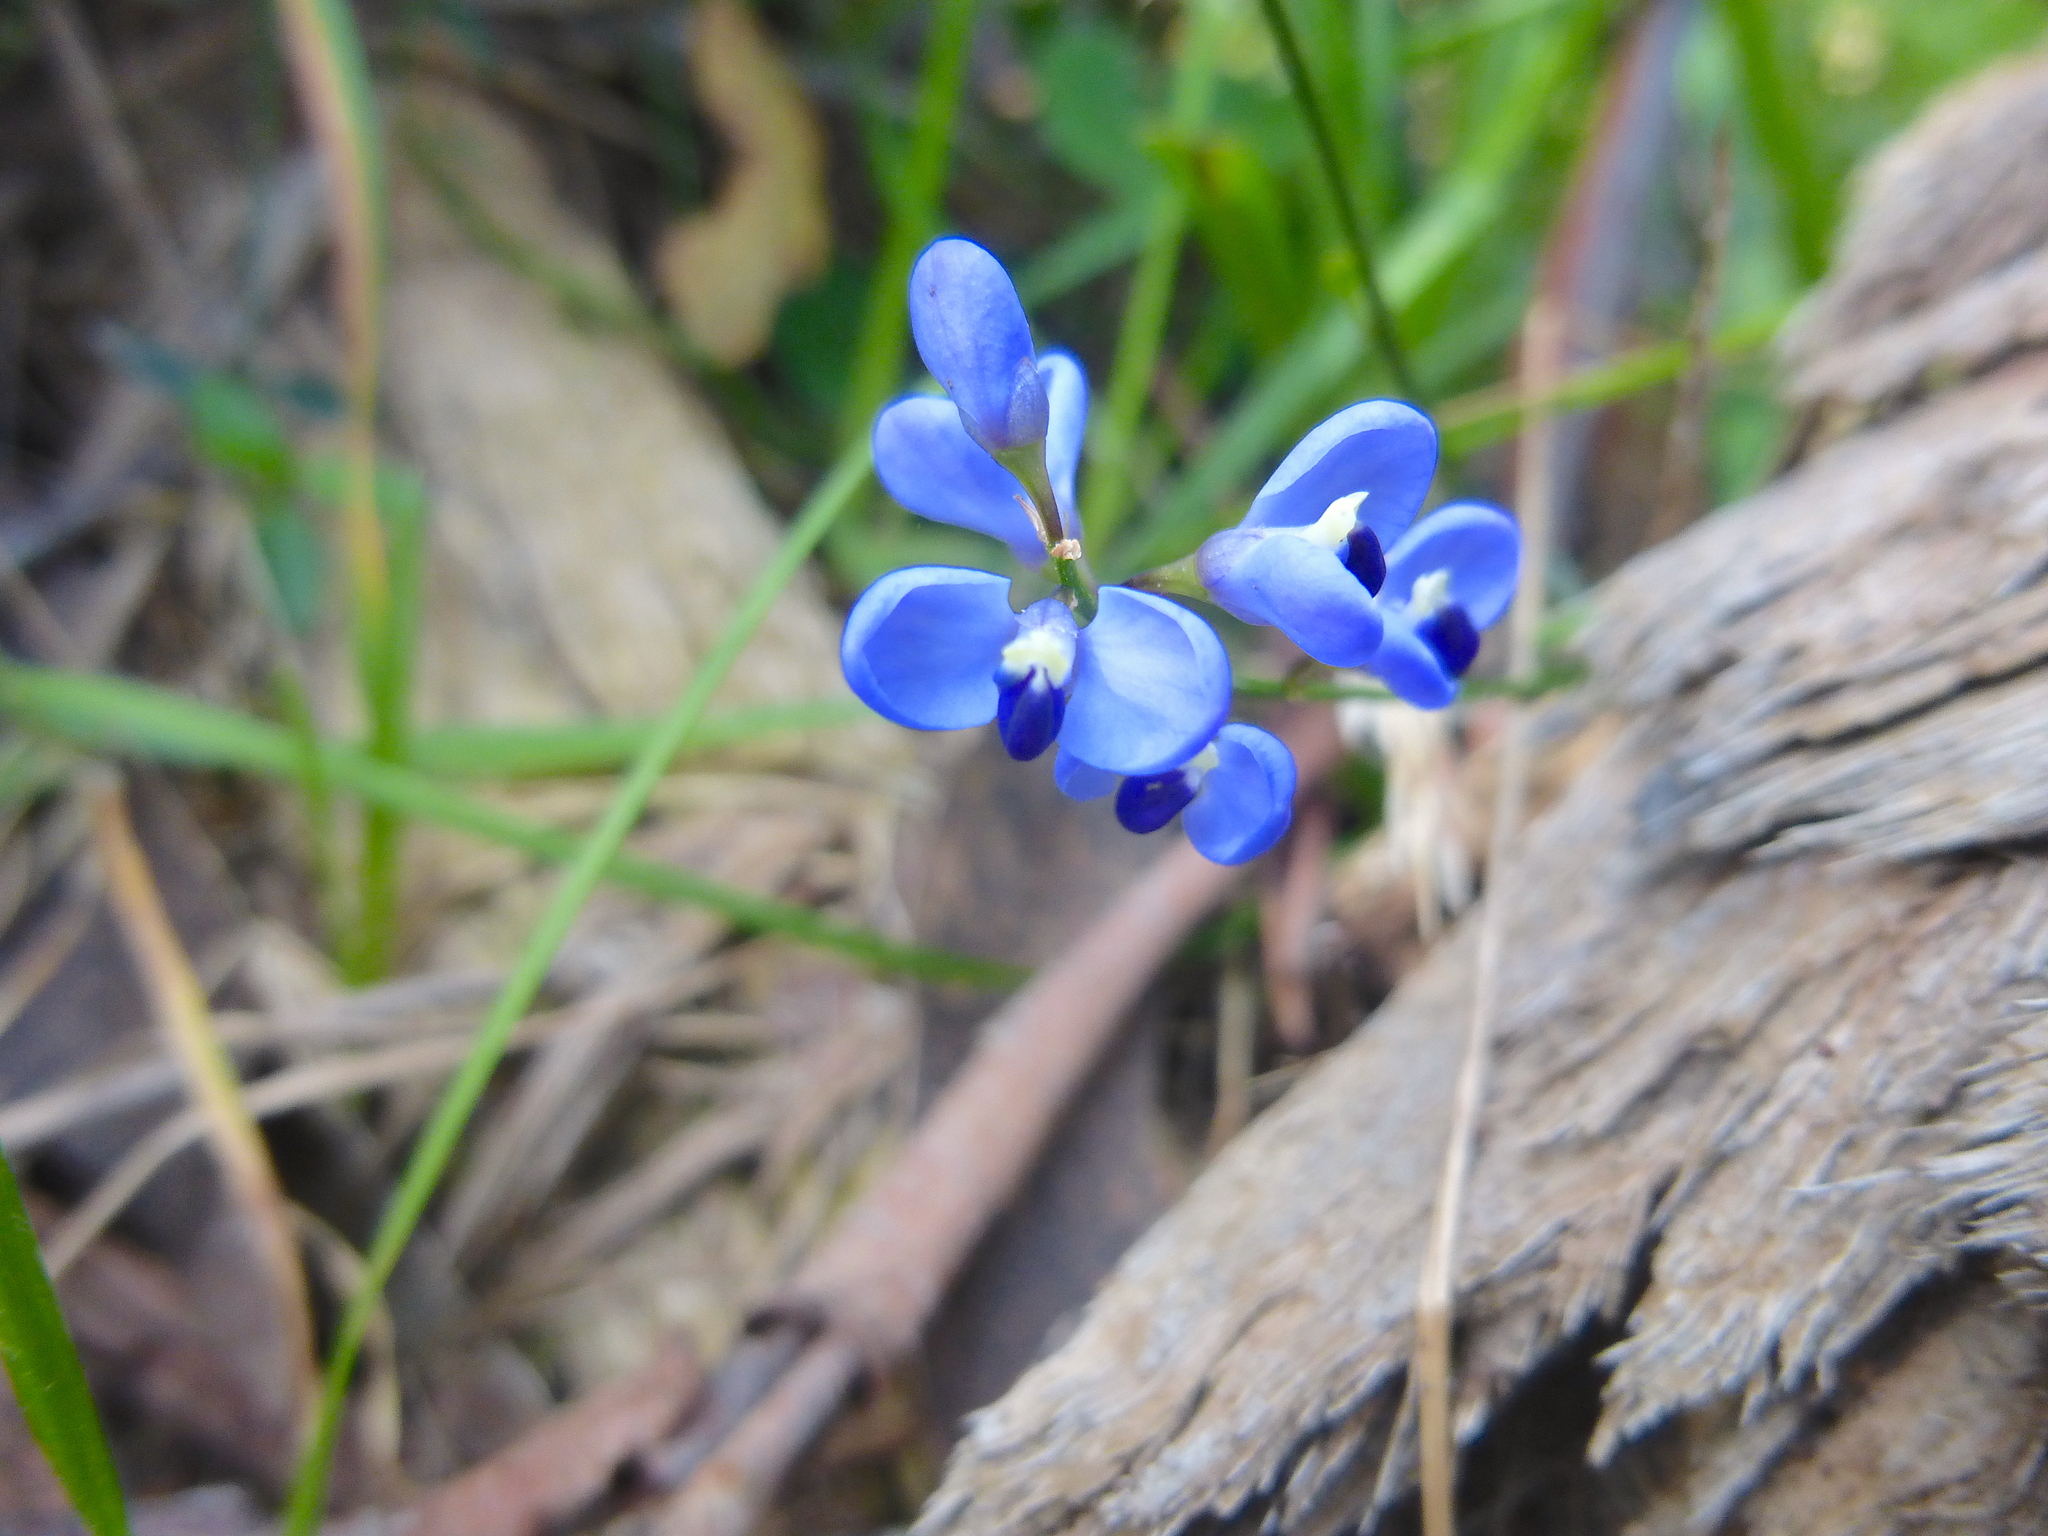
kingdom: Plantae
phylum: Tracheophyta
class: Magnoliopsida
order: Fabales
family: Polygalaceae
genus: Comesperma
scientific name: Comesperma volubile
